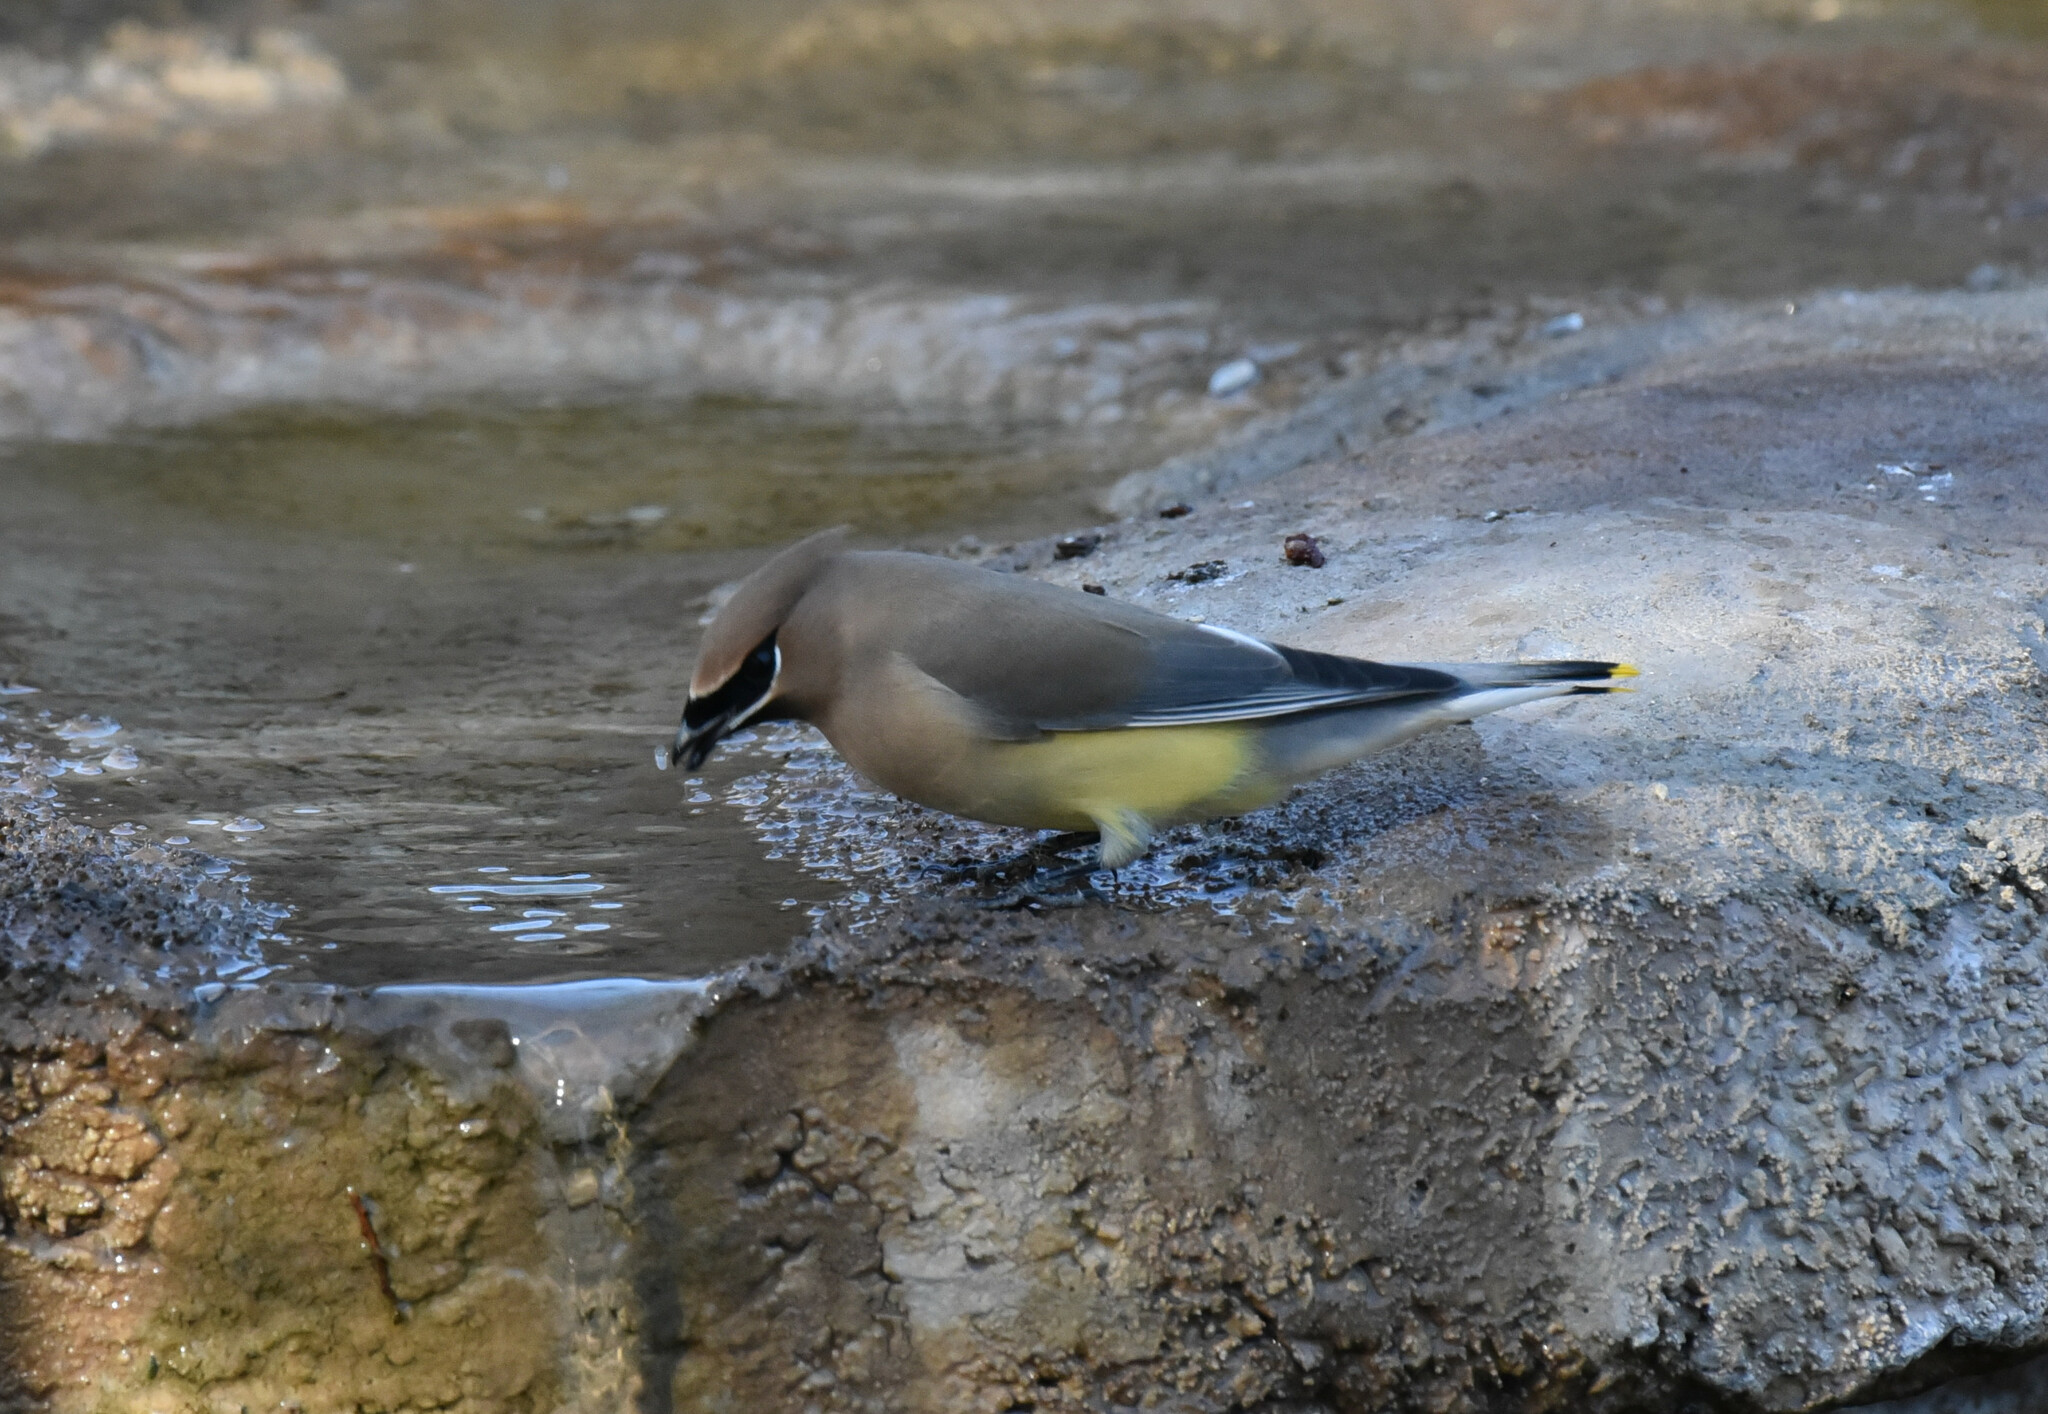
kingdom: Animalia
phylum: Chordata
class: Aves
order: Passeriformes
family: Bombycillidae
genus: Bombycilla
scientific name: Bombycilla cedrorum
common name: Cedar waxwing
